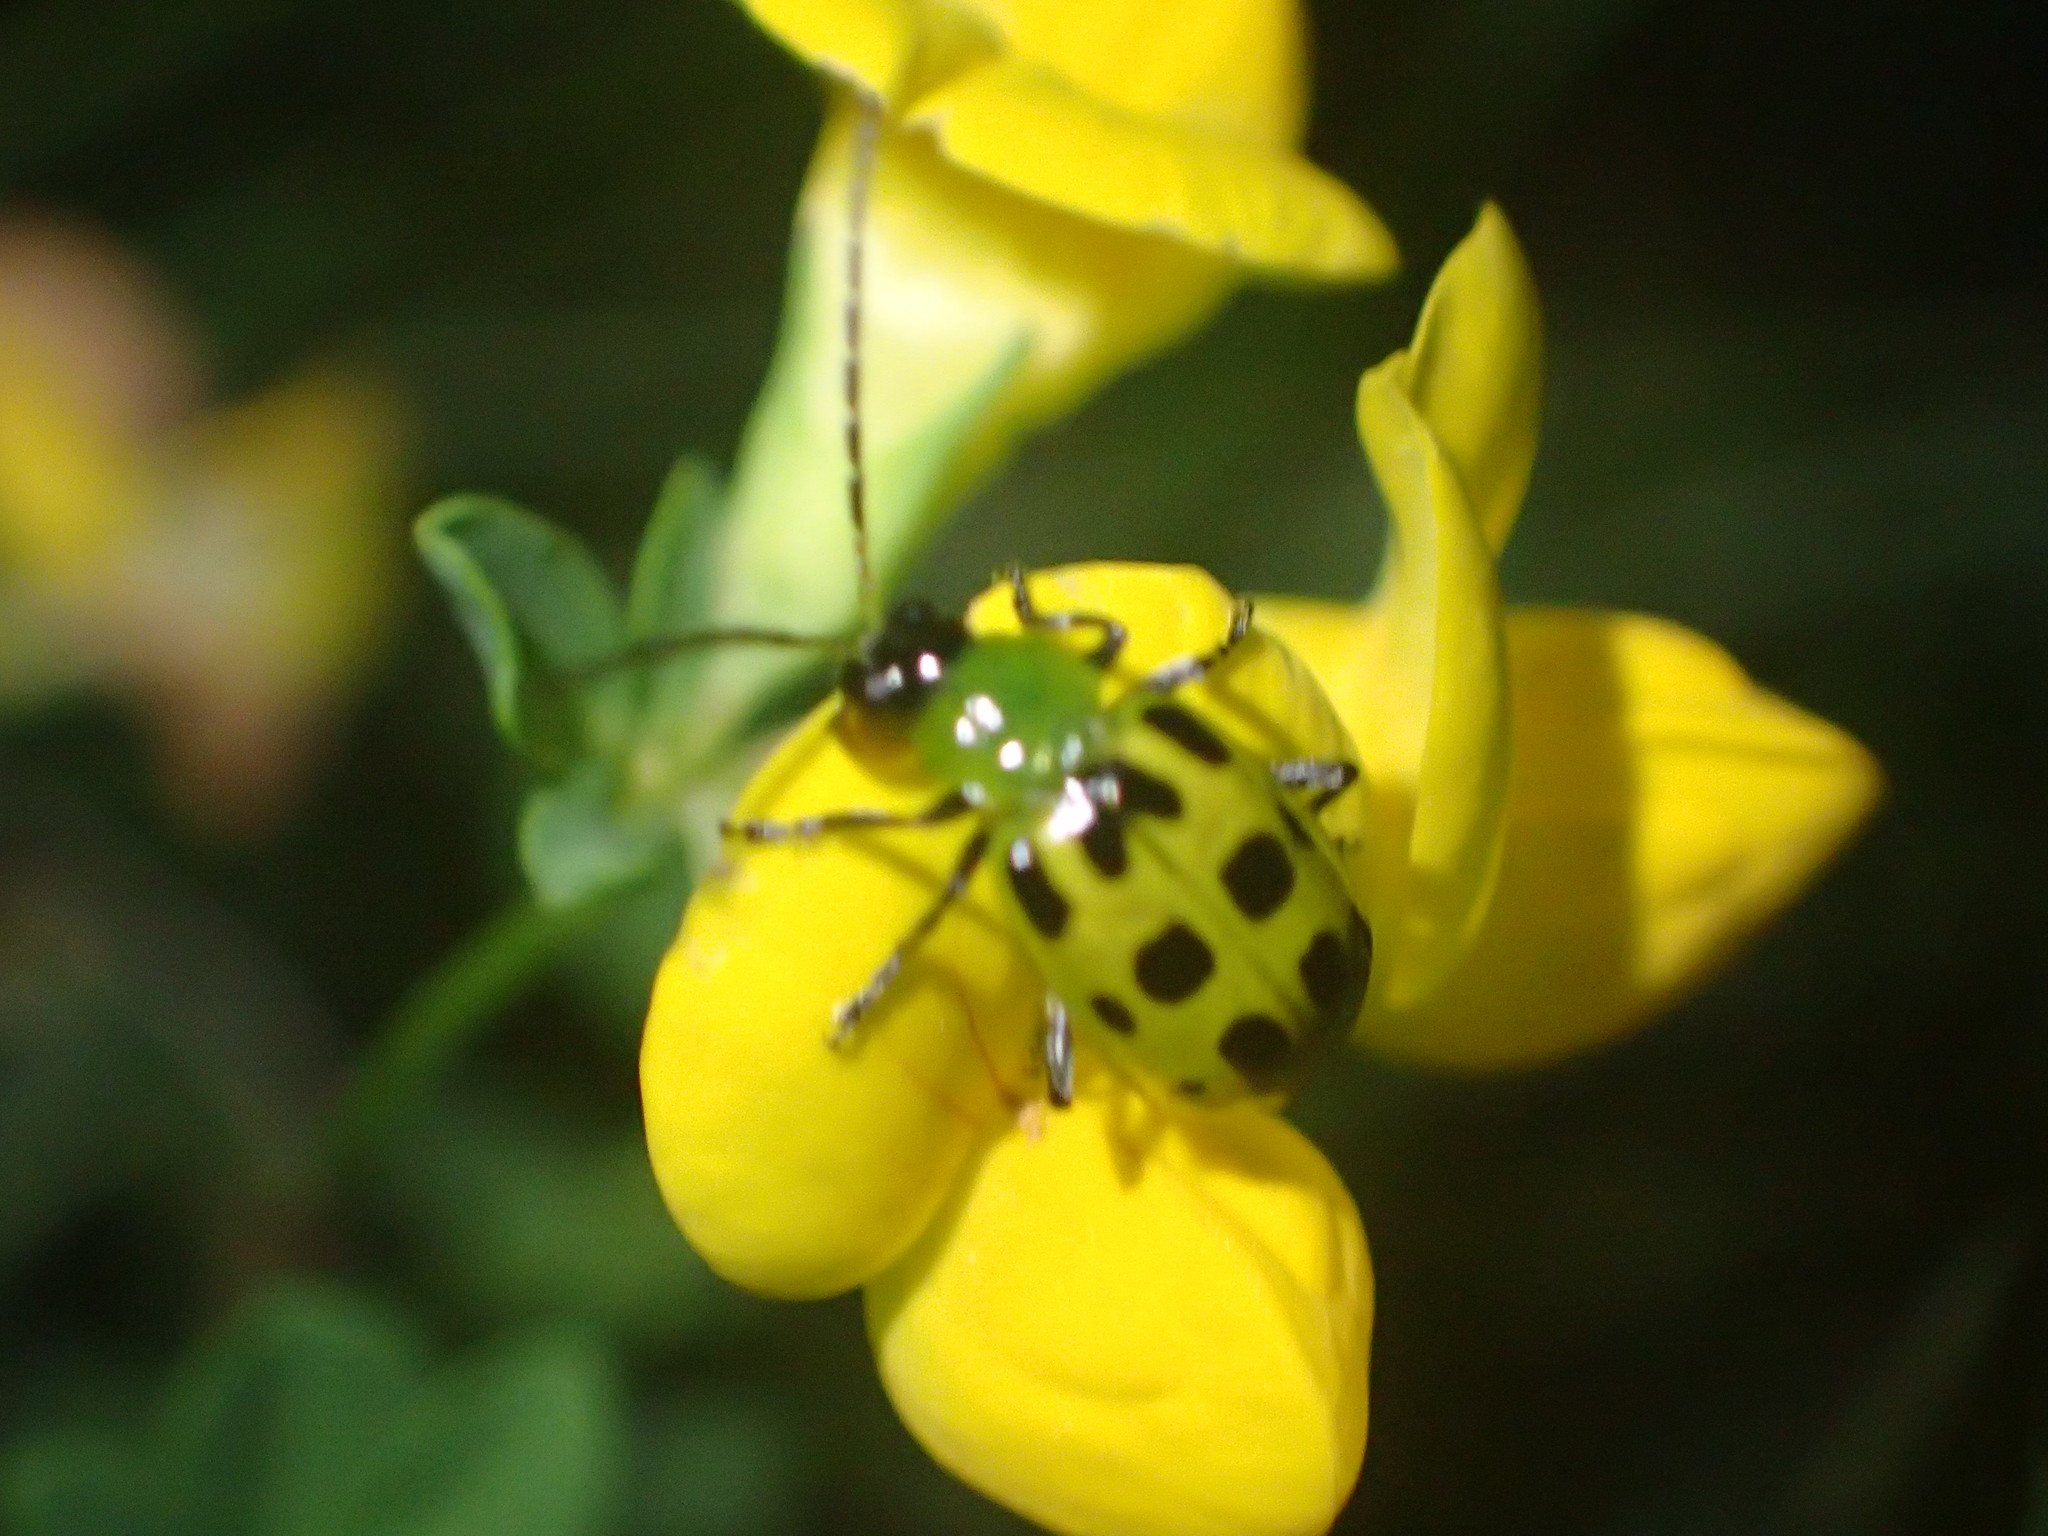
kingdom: Animalia
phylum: Arthropoda
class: Insecta
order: Coleoptera
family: Chrysomelidae
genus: Diabrotica
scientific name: Diabrotica undecimpunctata
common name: Spotted cucumber beetle
